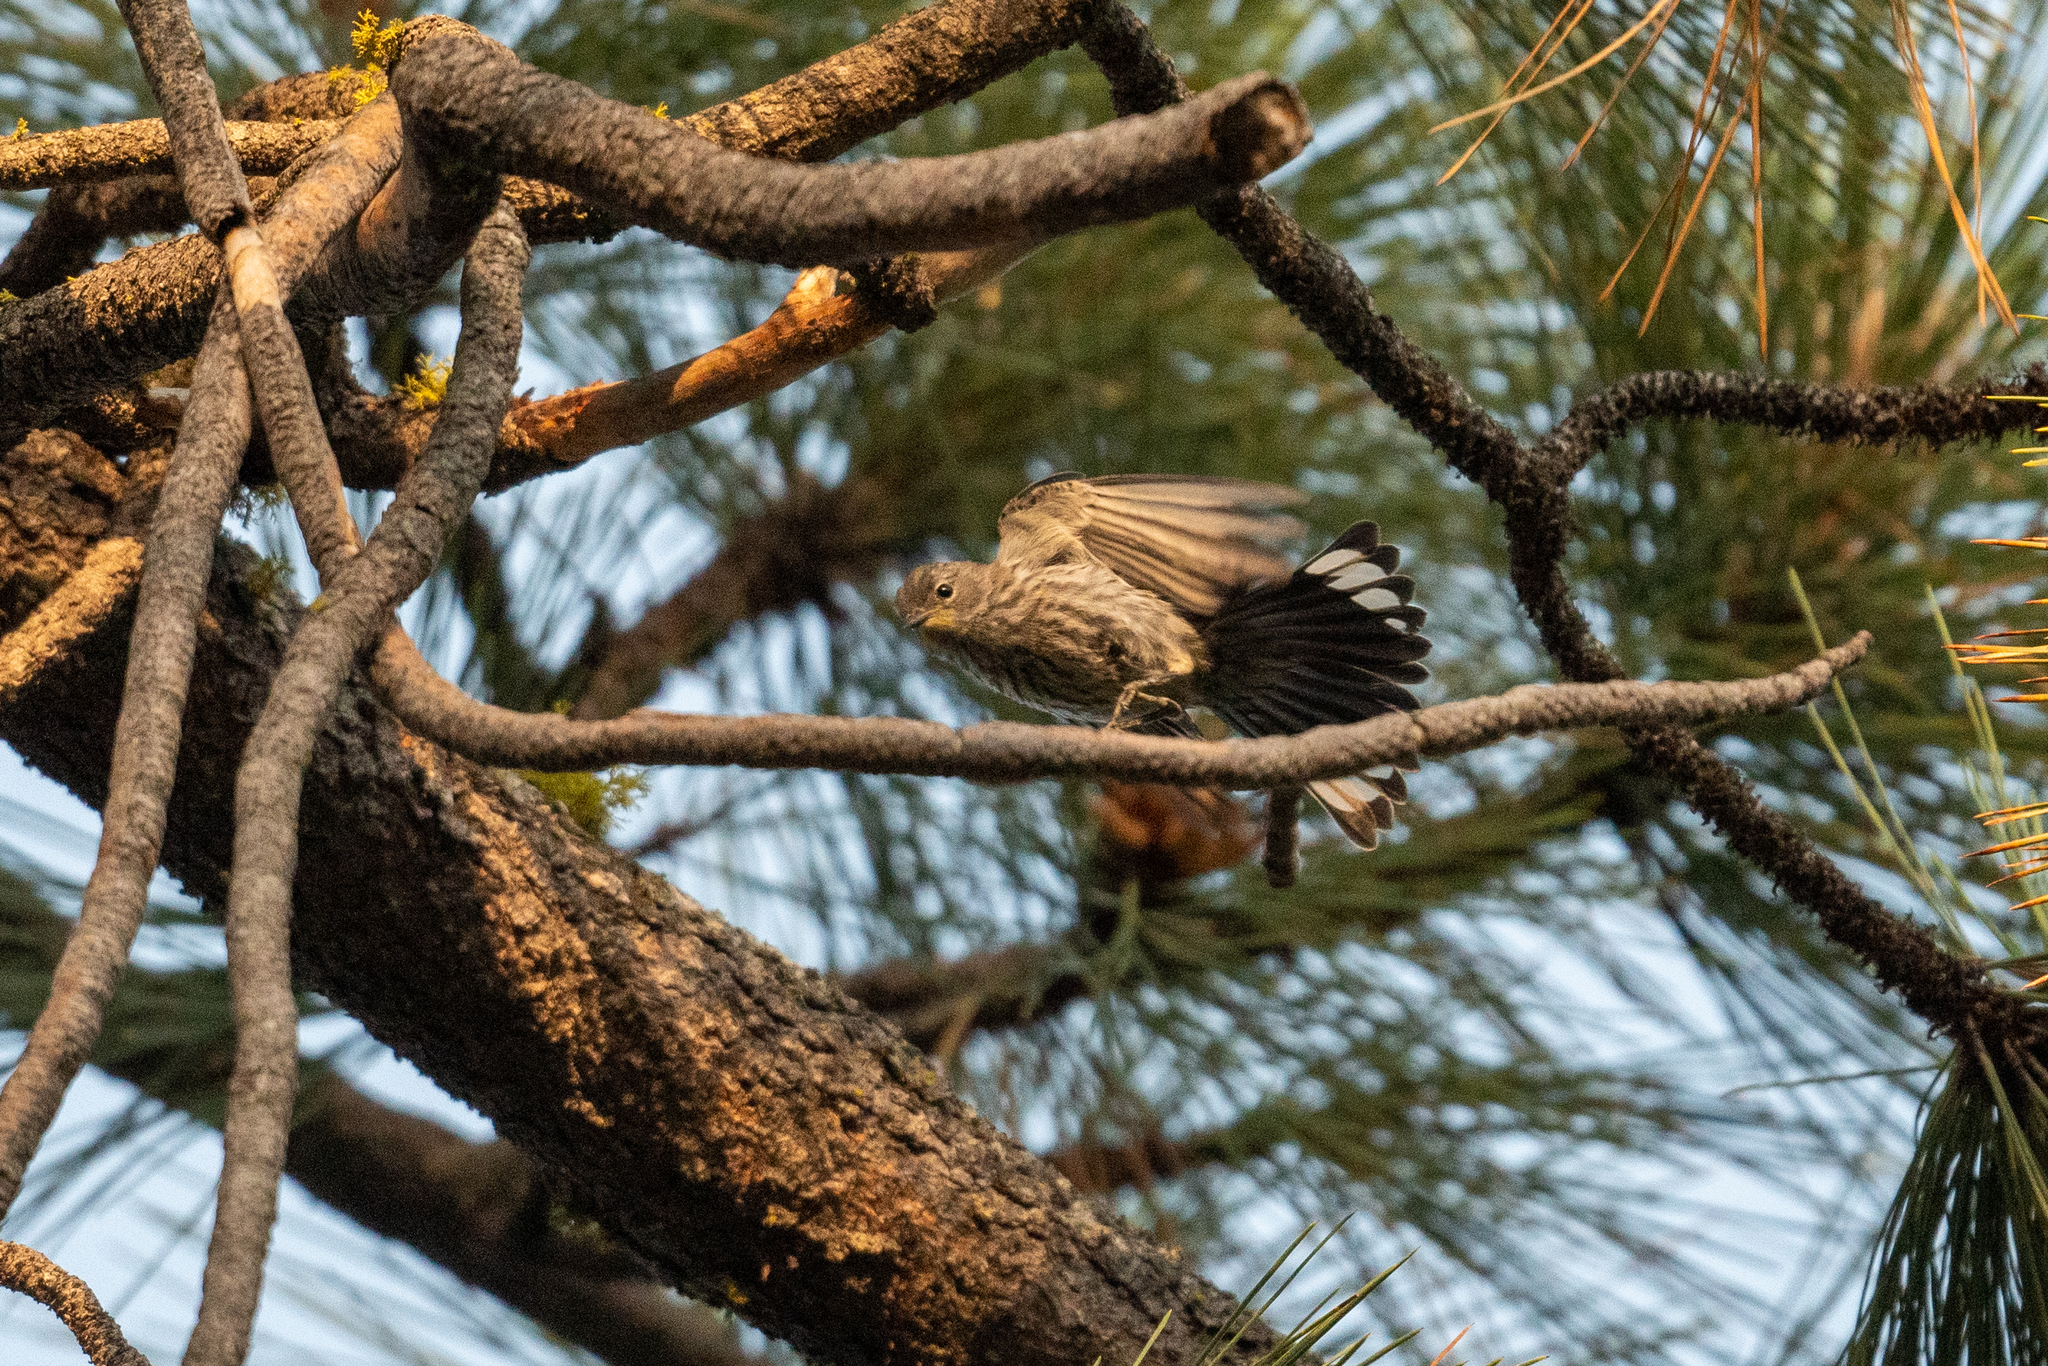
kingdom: Animalia
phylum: Chordata
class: Aves
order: Passeriformes
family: Parulidae
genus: Setophaga
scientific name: Setophaga auduboni
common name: Audubon's warbler
